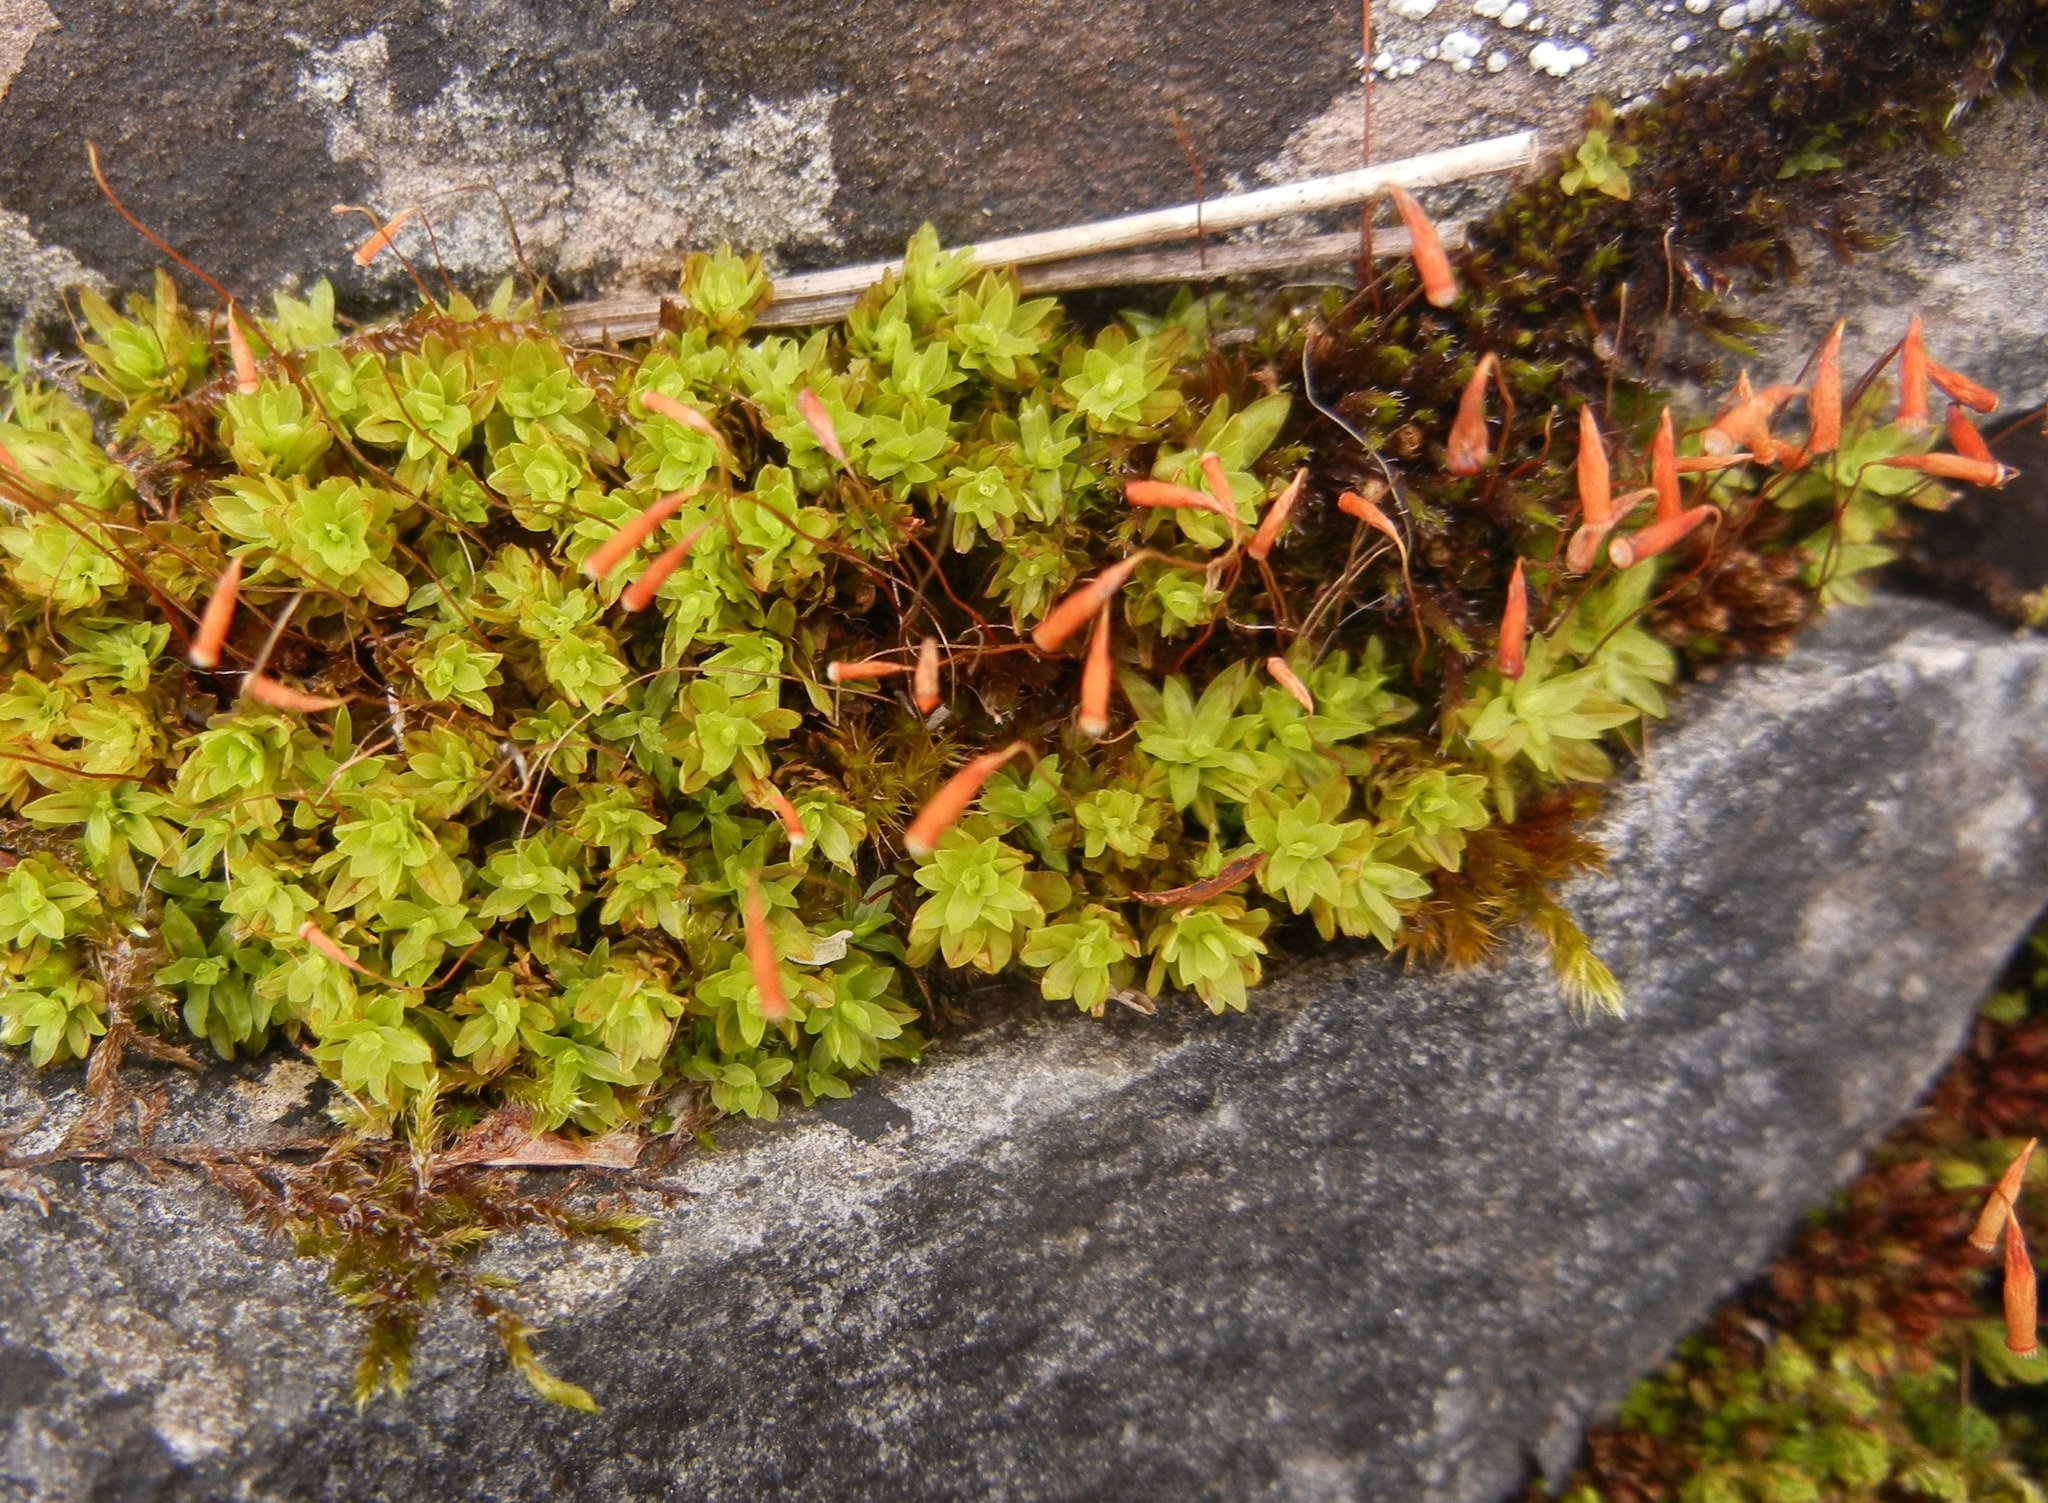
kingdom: Plantae
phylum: Bryophyta
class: Bryopsida
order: Bryales
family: Bryaceae
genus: Rosulabryum
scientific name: Rosulabryum capillare
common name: Capillary thread-moss
